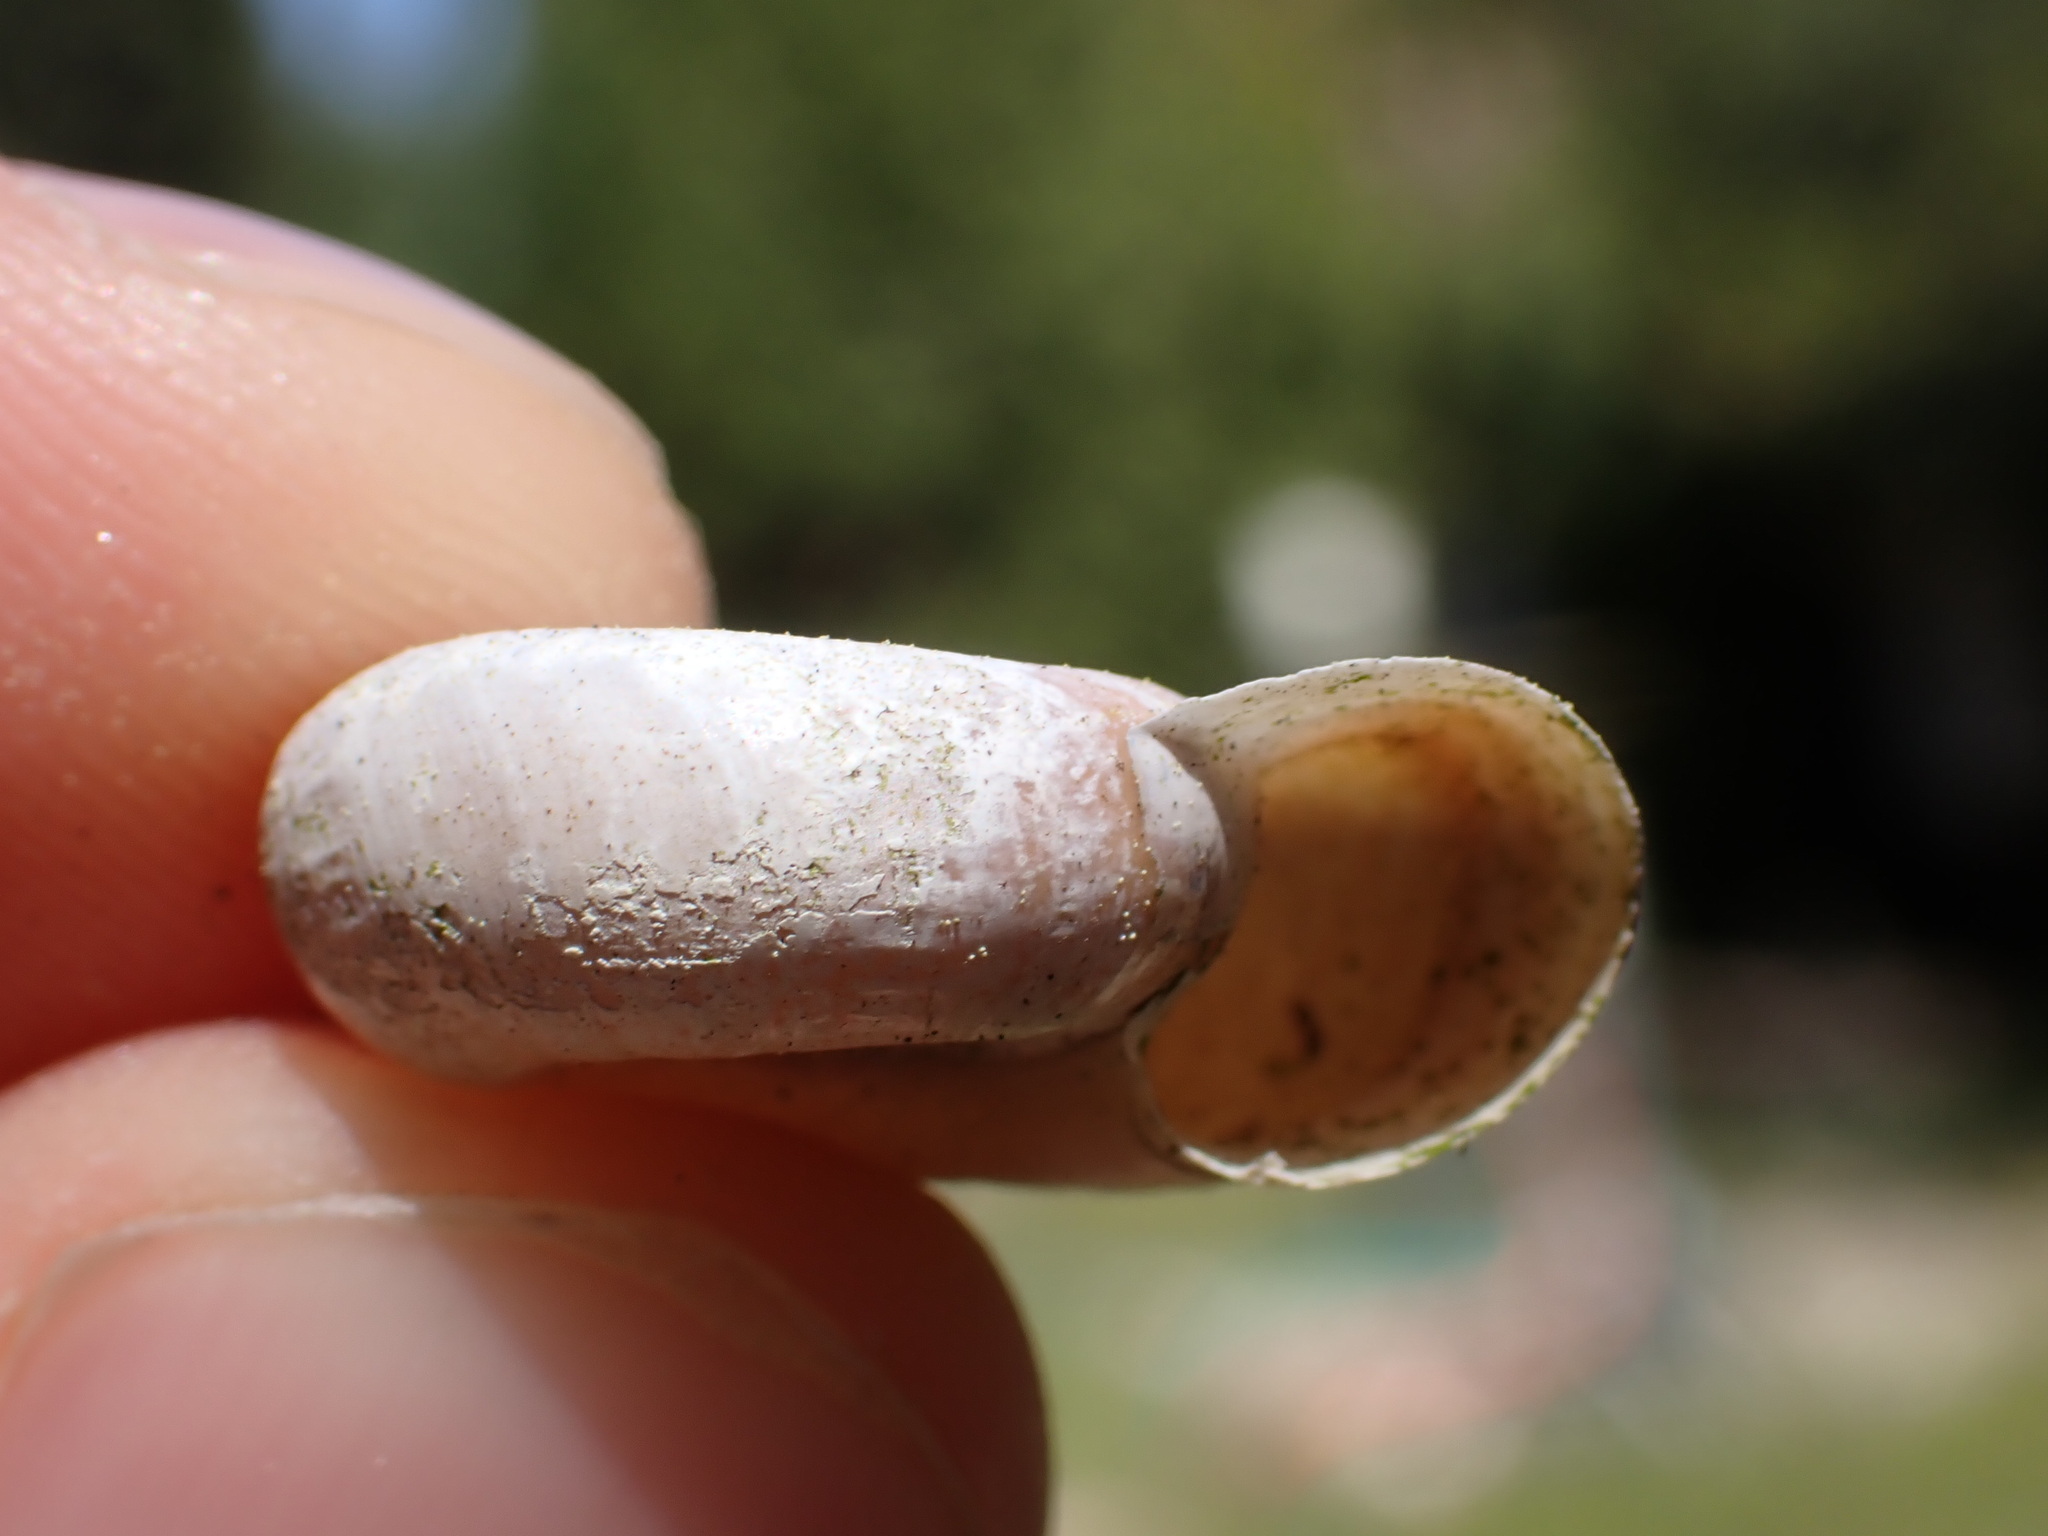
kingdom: Animalia
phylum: Mollusca
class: Gastropoda
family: Planorbidae
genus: Planorbarius
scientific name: Planorbarius corneus
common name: Great ramshorn
